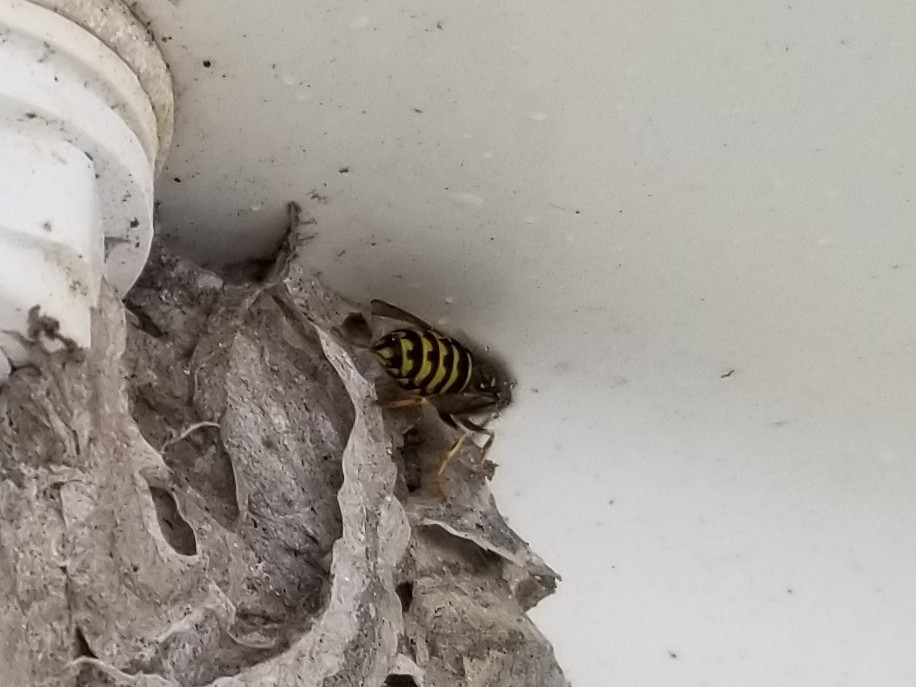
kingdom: Animalia
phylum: Arthropoda
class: Insecta
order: Hymenoptera
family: Vespidae
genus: Dolichovespula
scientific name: Dolichovespula arenaria
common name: Aerial yellowjacket
